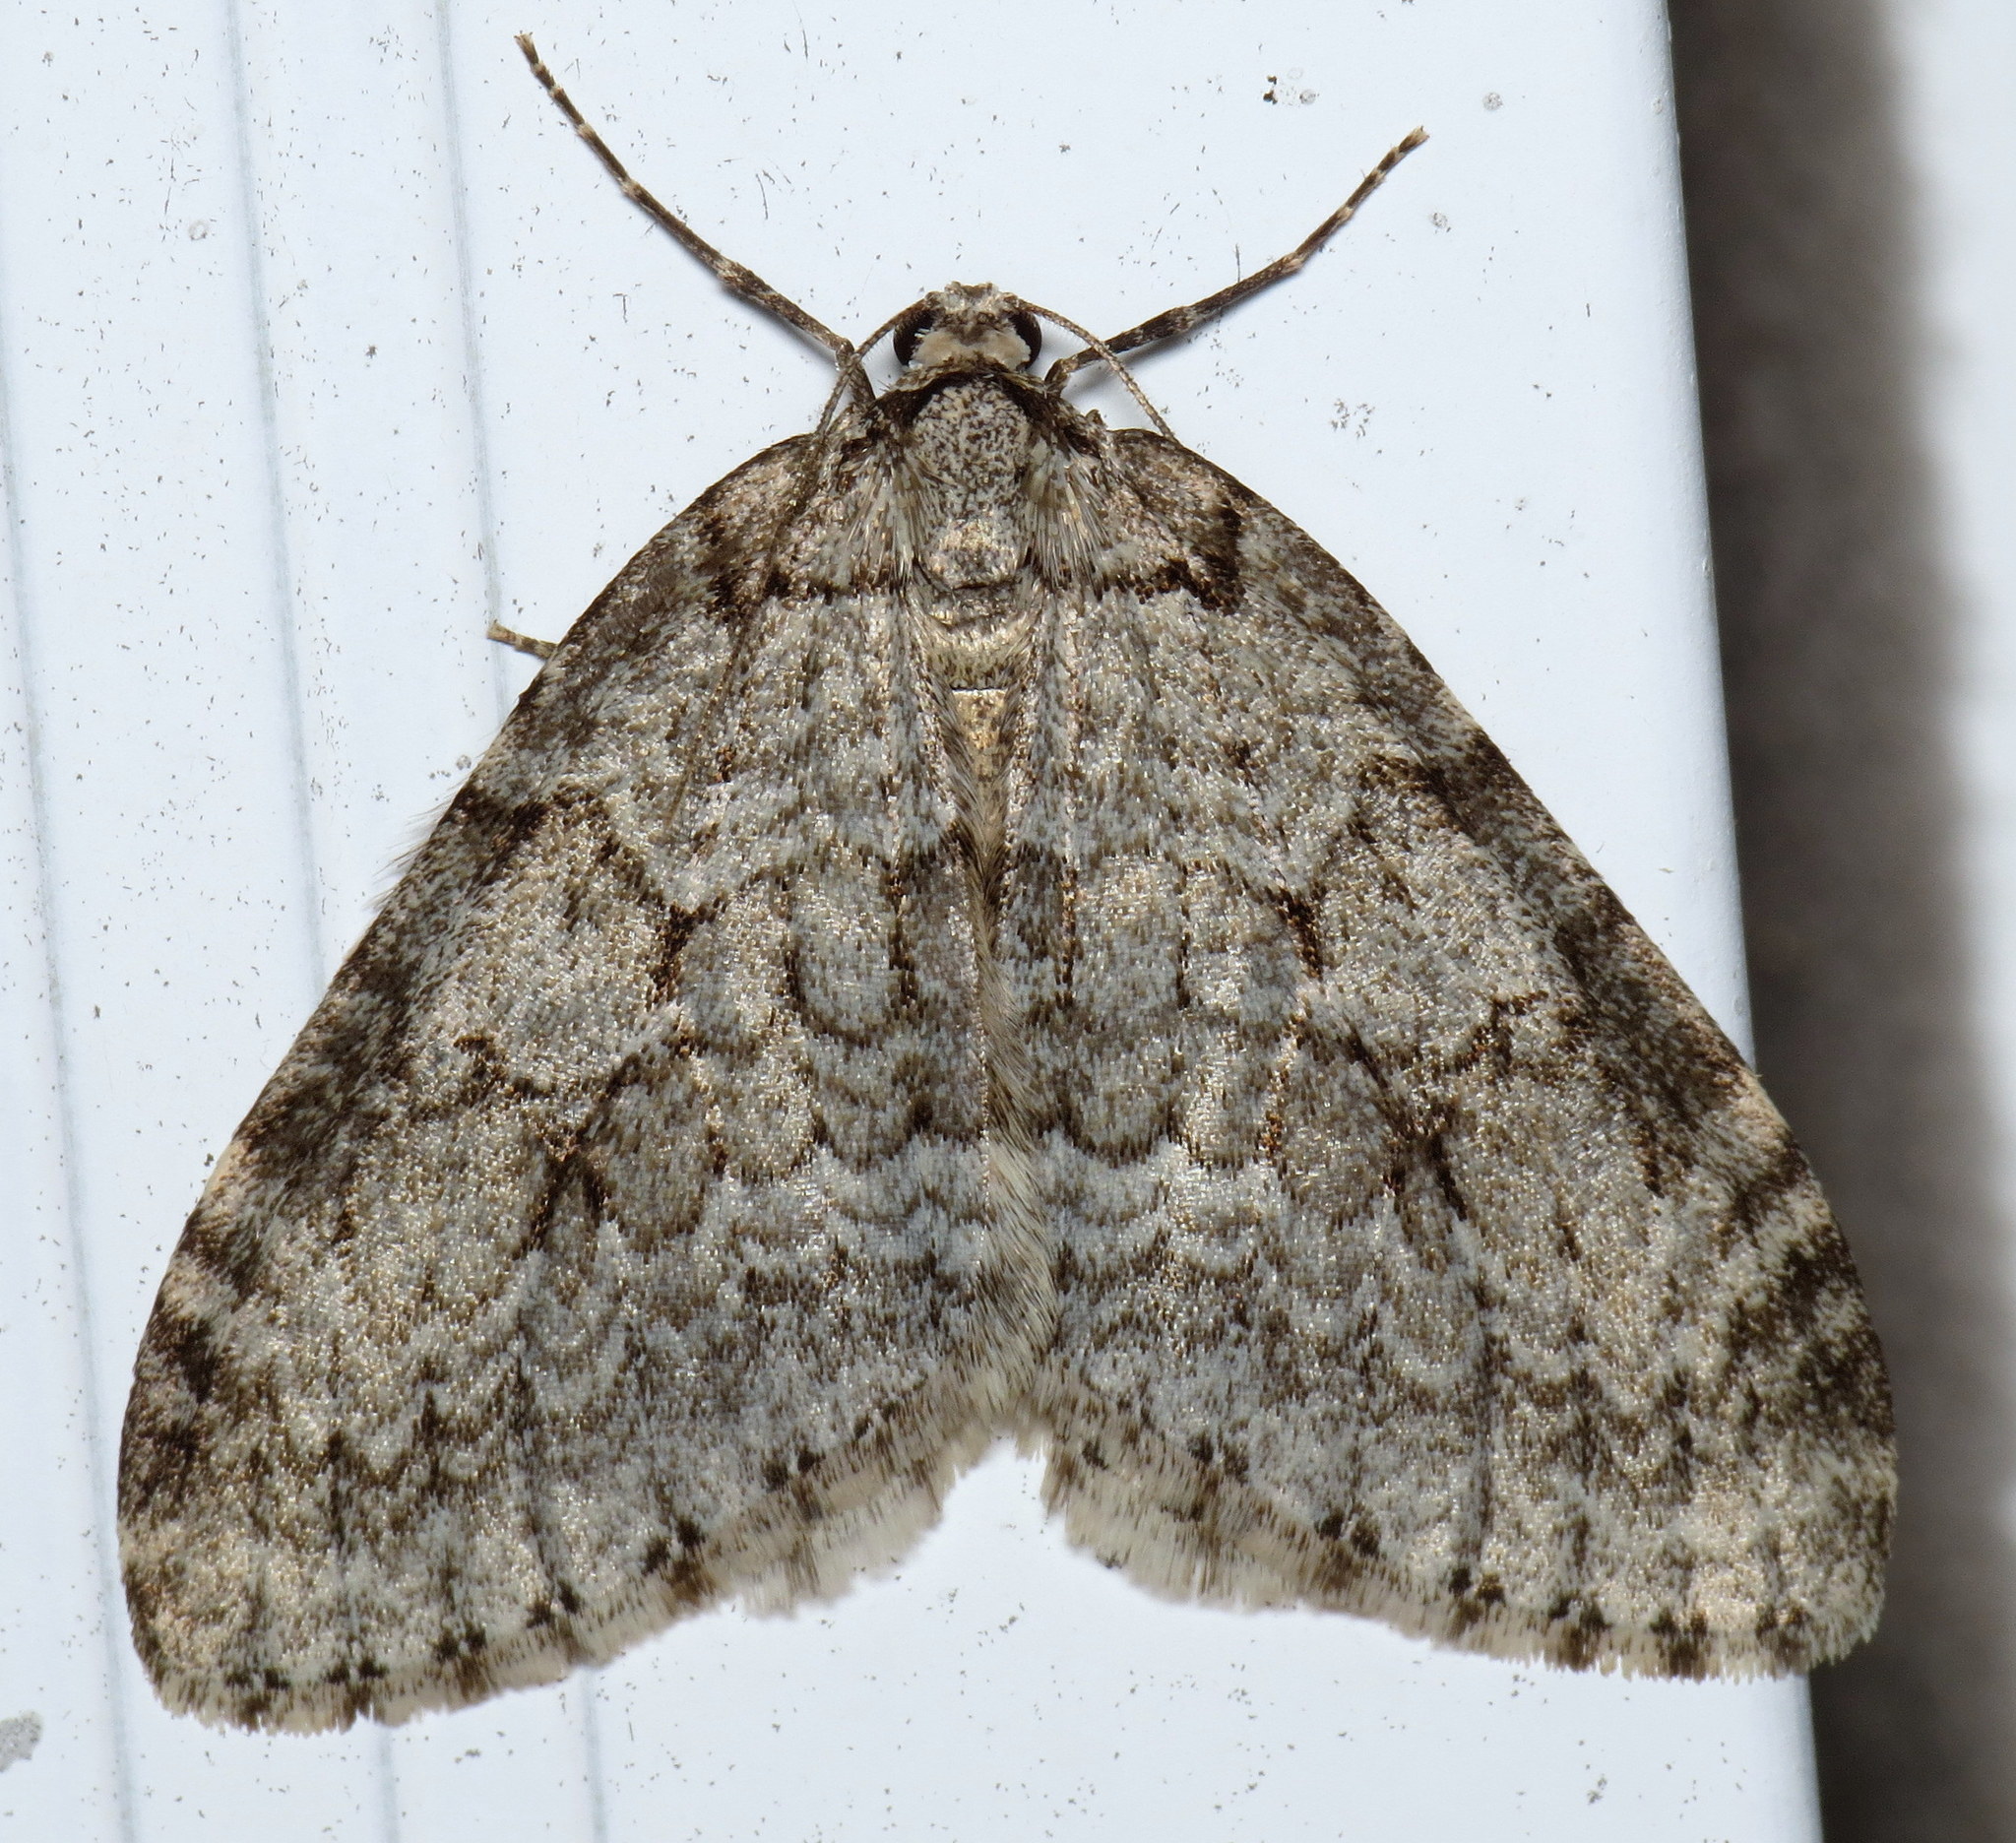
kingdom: Animalia
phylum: Arthropoda
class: Insecta
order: Lepidoptera
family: Geometridae
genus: Epirrita
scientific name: Epirrita autumnata
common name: Autumnal moth
